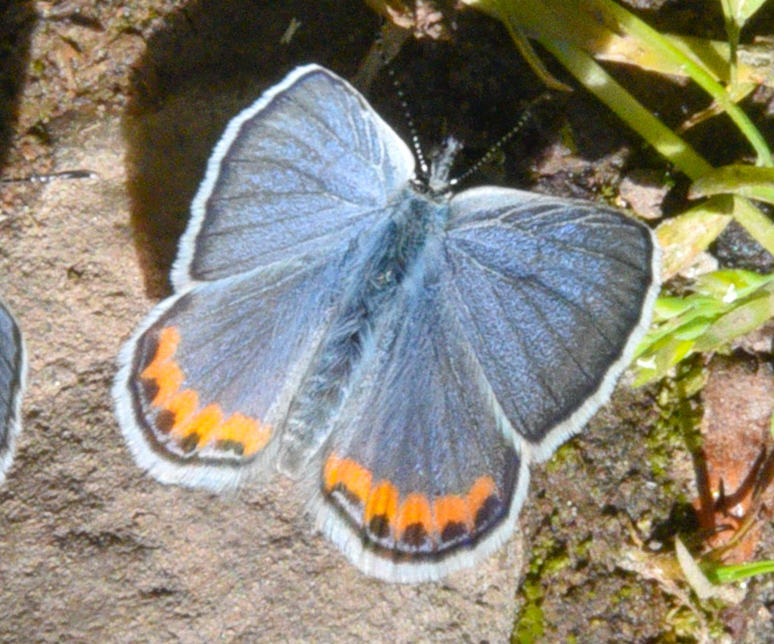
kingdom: Animalia
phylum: Arthropoda
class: Insecta
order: Lepidoptera
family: Lycaenidae
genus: Icaricia
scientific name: Icaricia lupini
